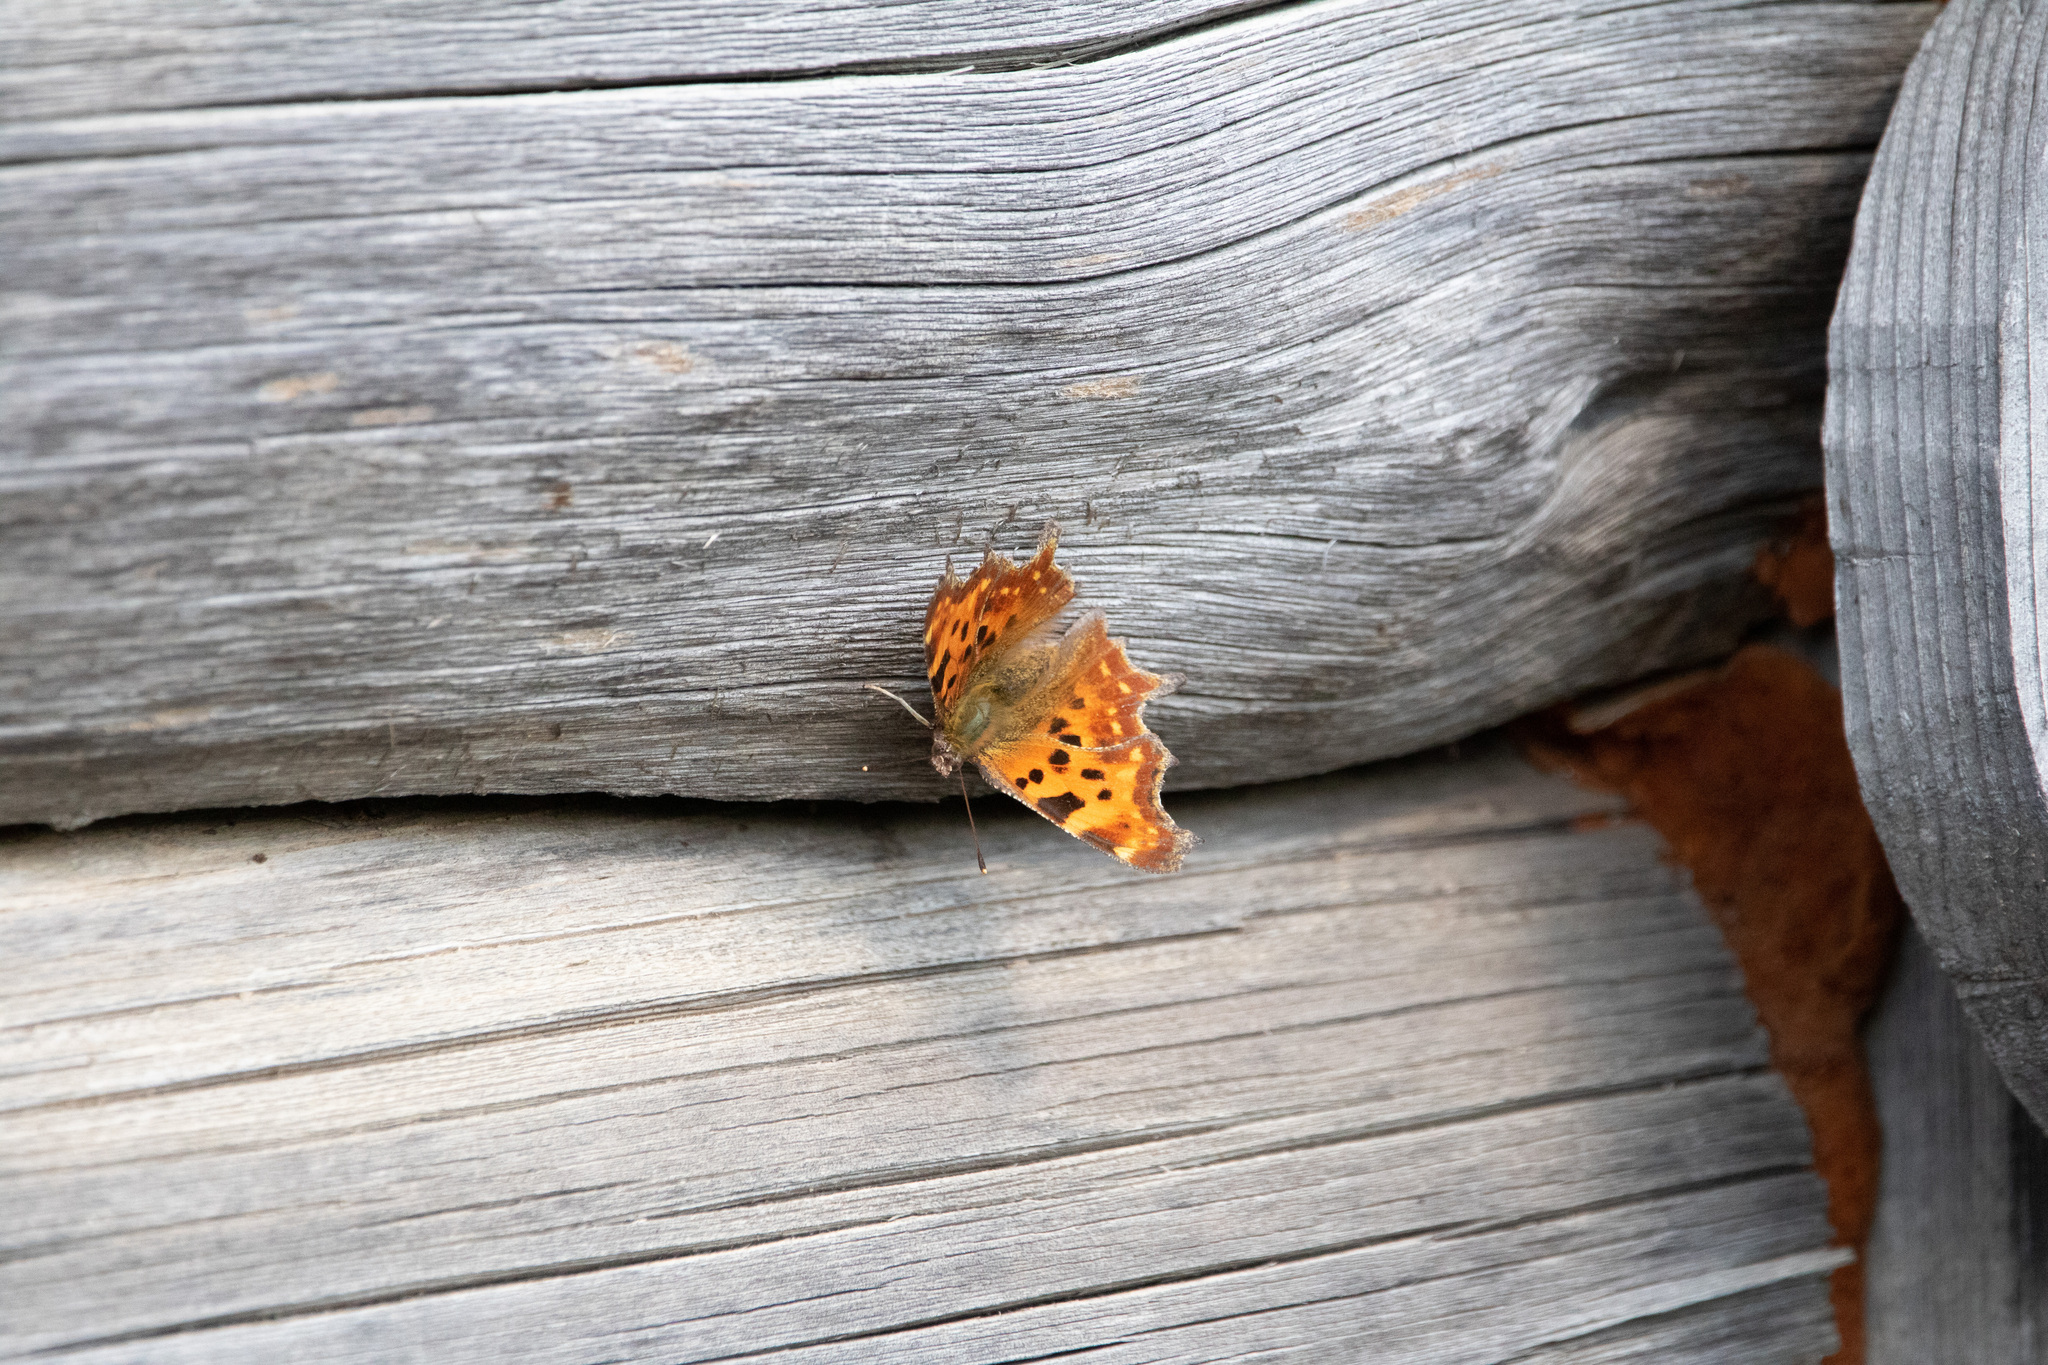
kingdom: Animalia
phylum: Arthropoda
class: Insecta
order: Lepidoptera
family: Nymphalidae
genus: Polygonia
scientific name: Polygonia c-album
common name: Comma
